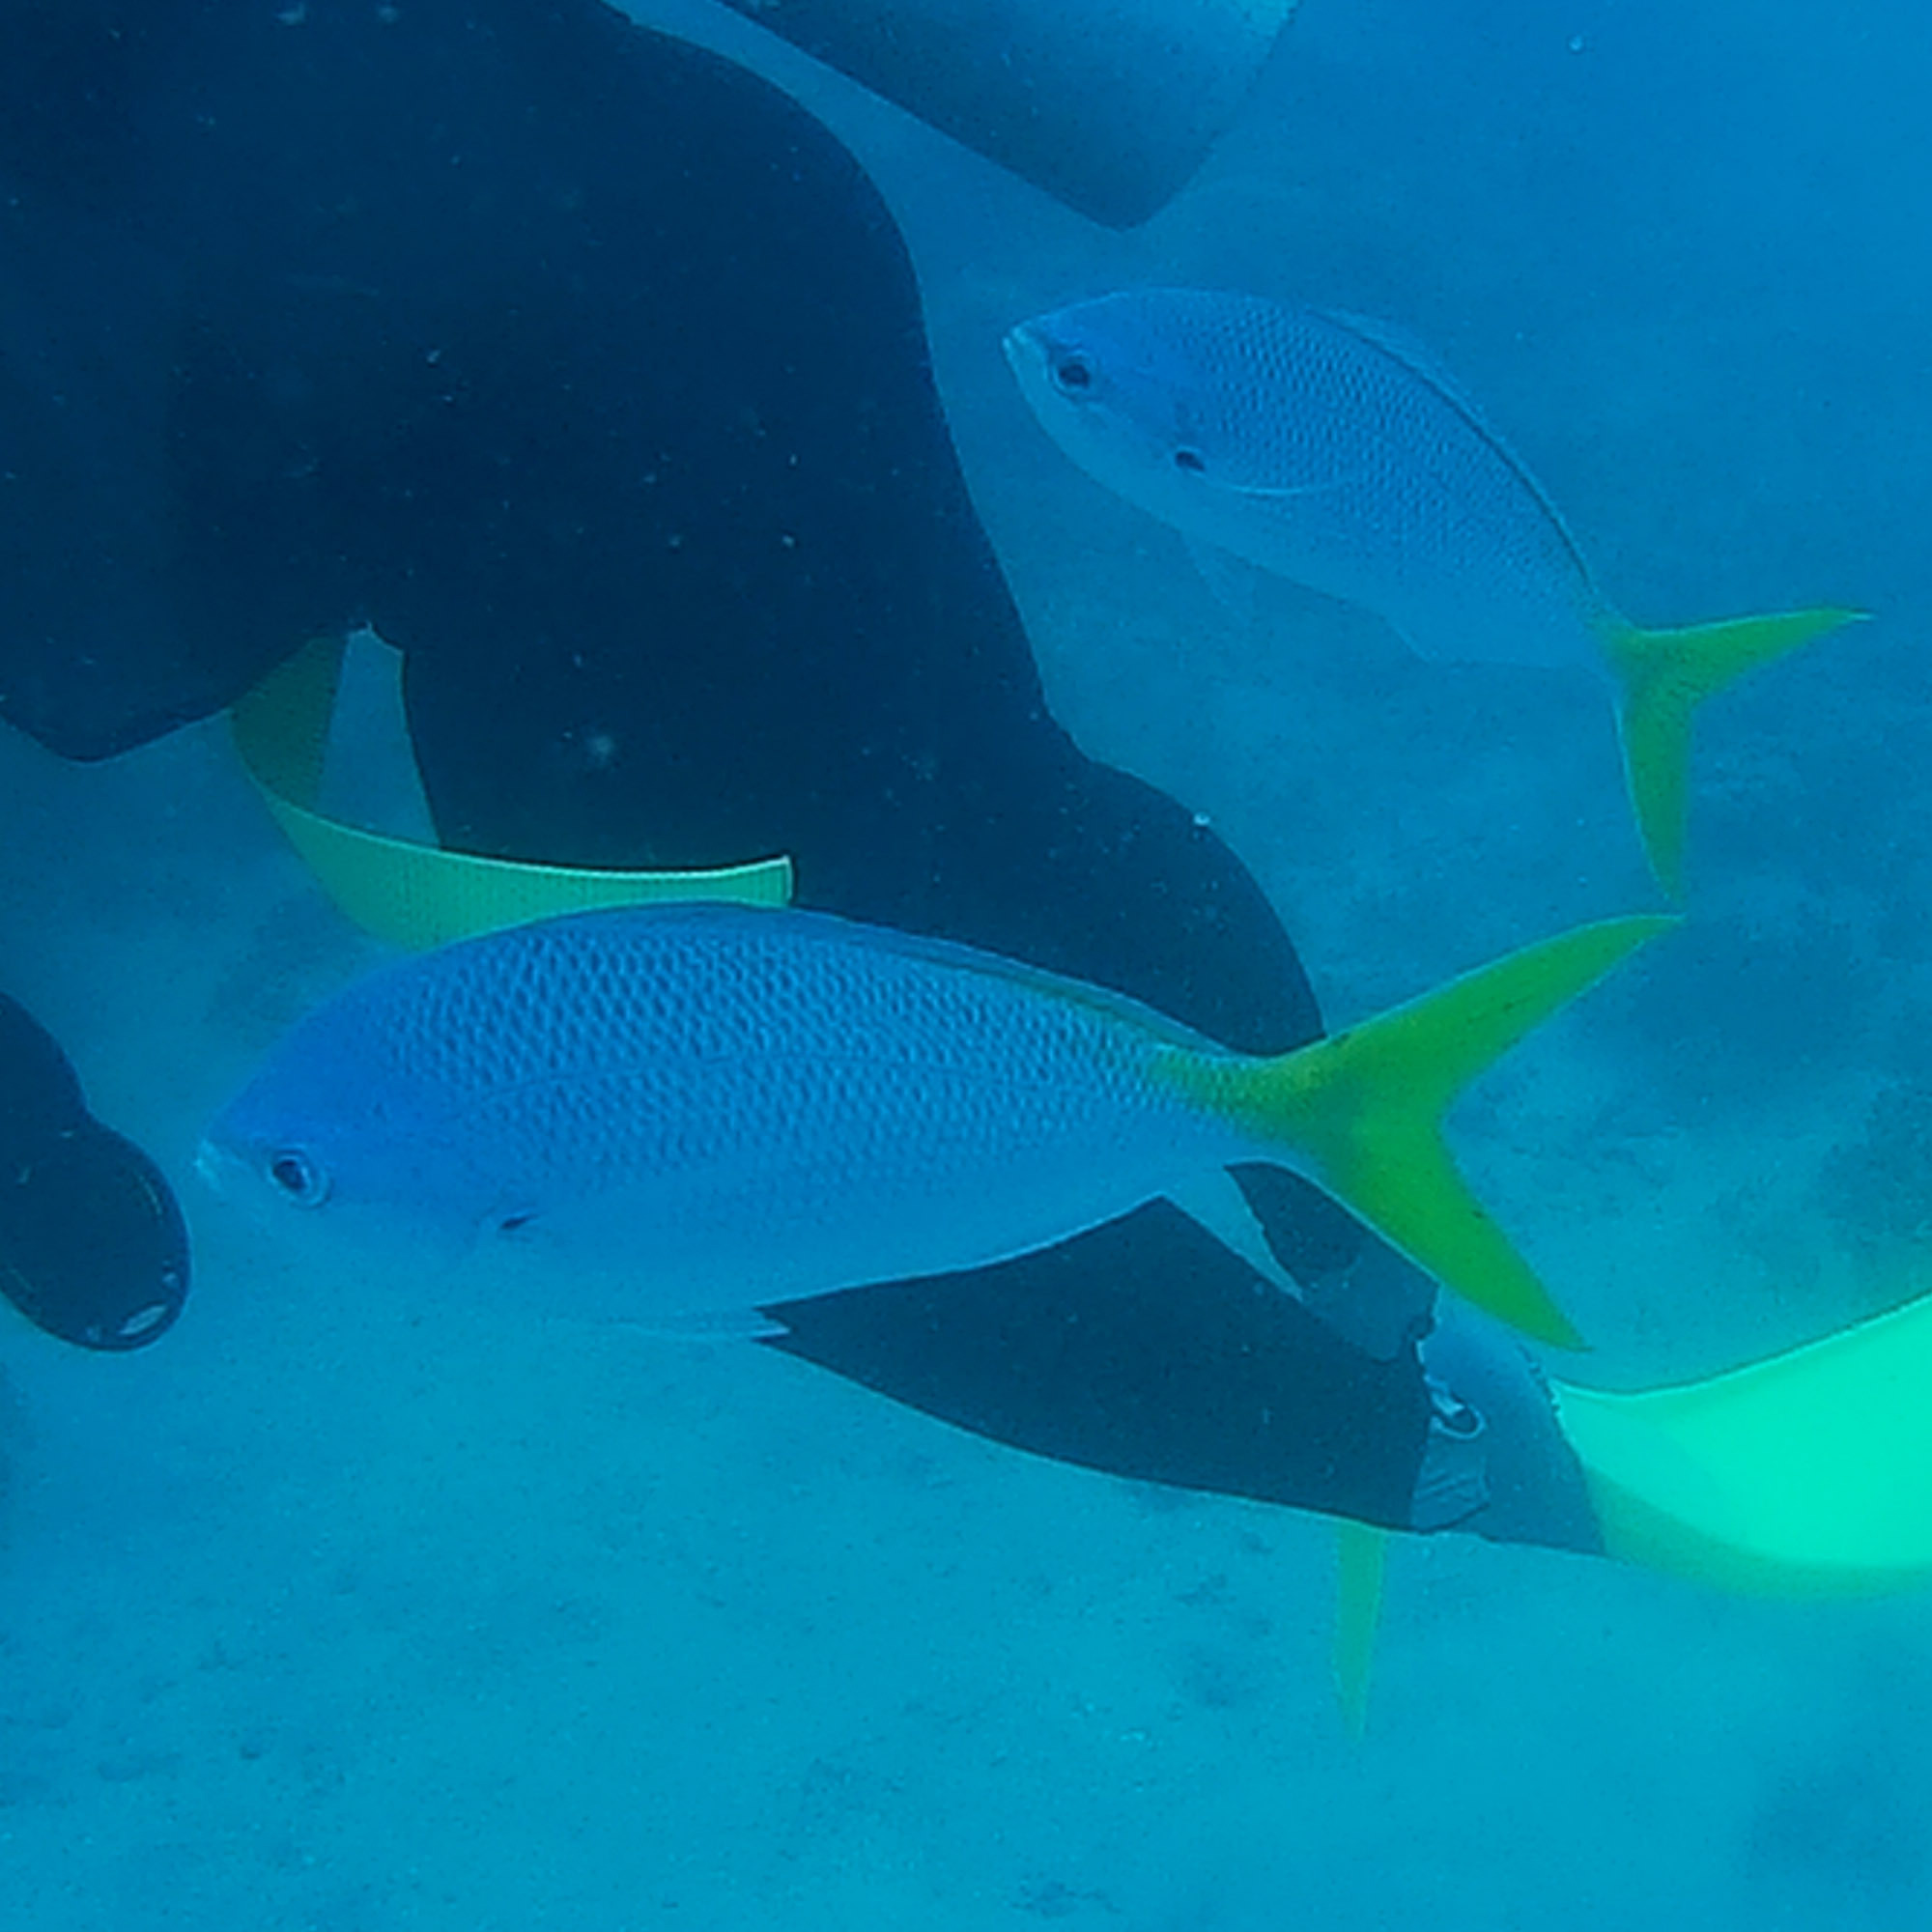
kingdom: Animalia
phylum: Chordata
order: Perciformes
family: Caesionidae
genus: Caesio
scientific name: Caesio cuning
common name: Red-bellied fusilier
